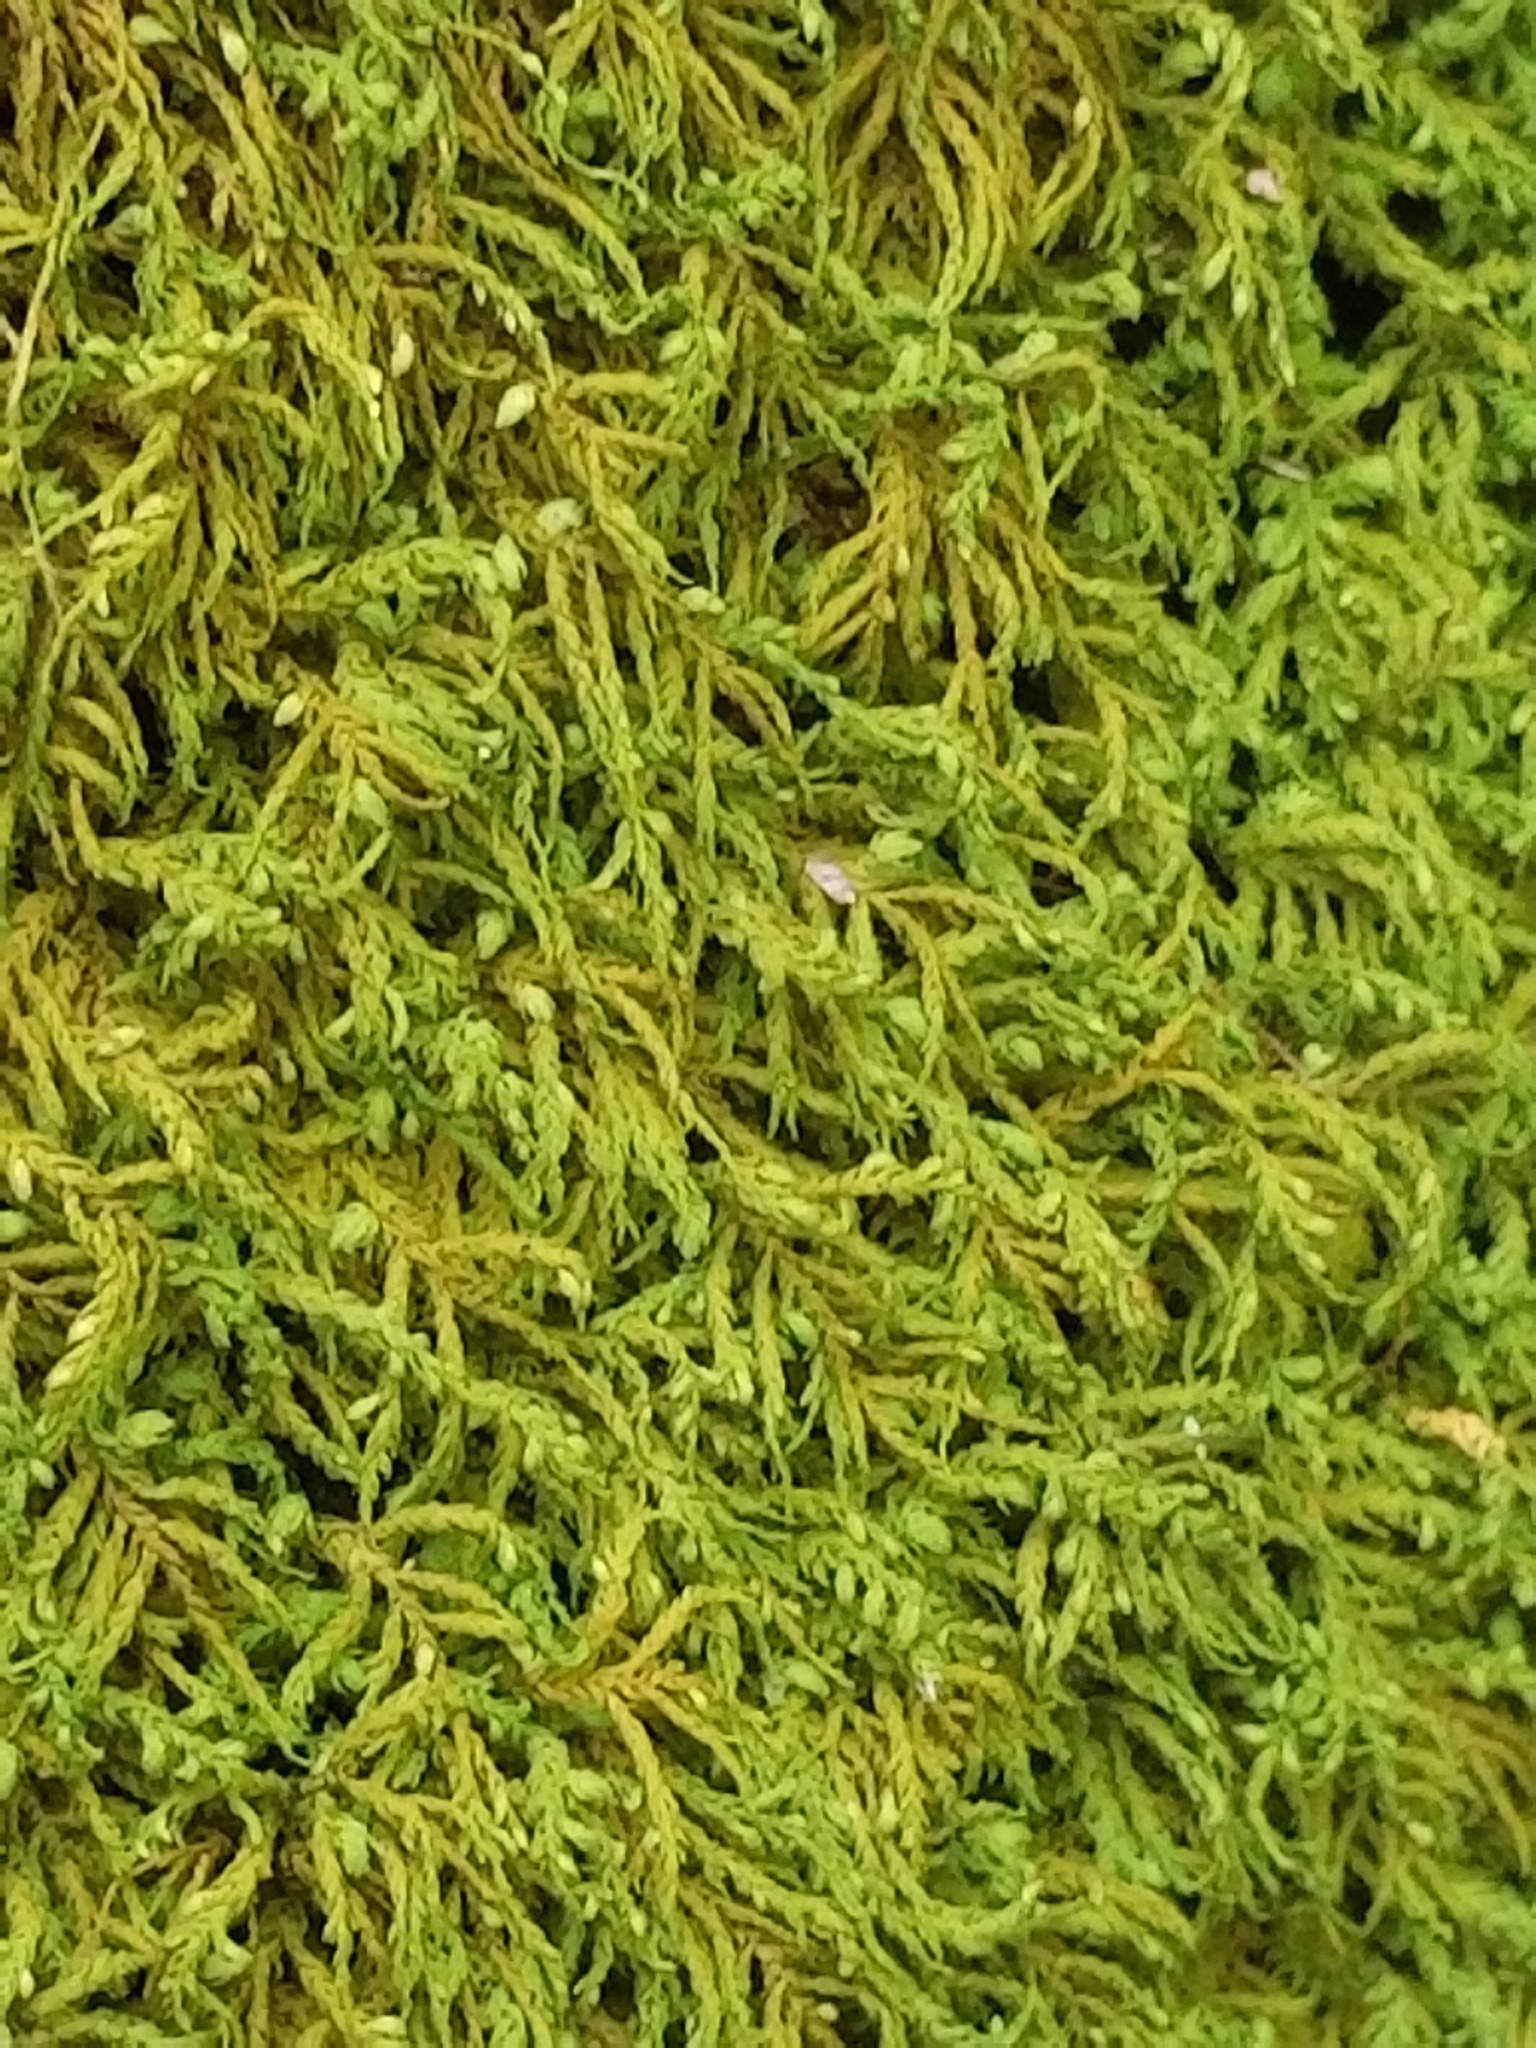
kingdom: Plantae
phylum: Bryophyta
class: Bryopsida
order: Hypnales
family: Neckeraceae
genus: Pseudanomodon
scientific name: Pseudanomodon attenuatus
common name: Tree-skirt moss
